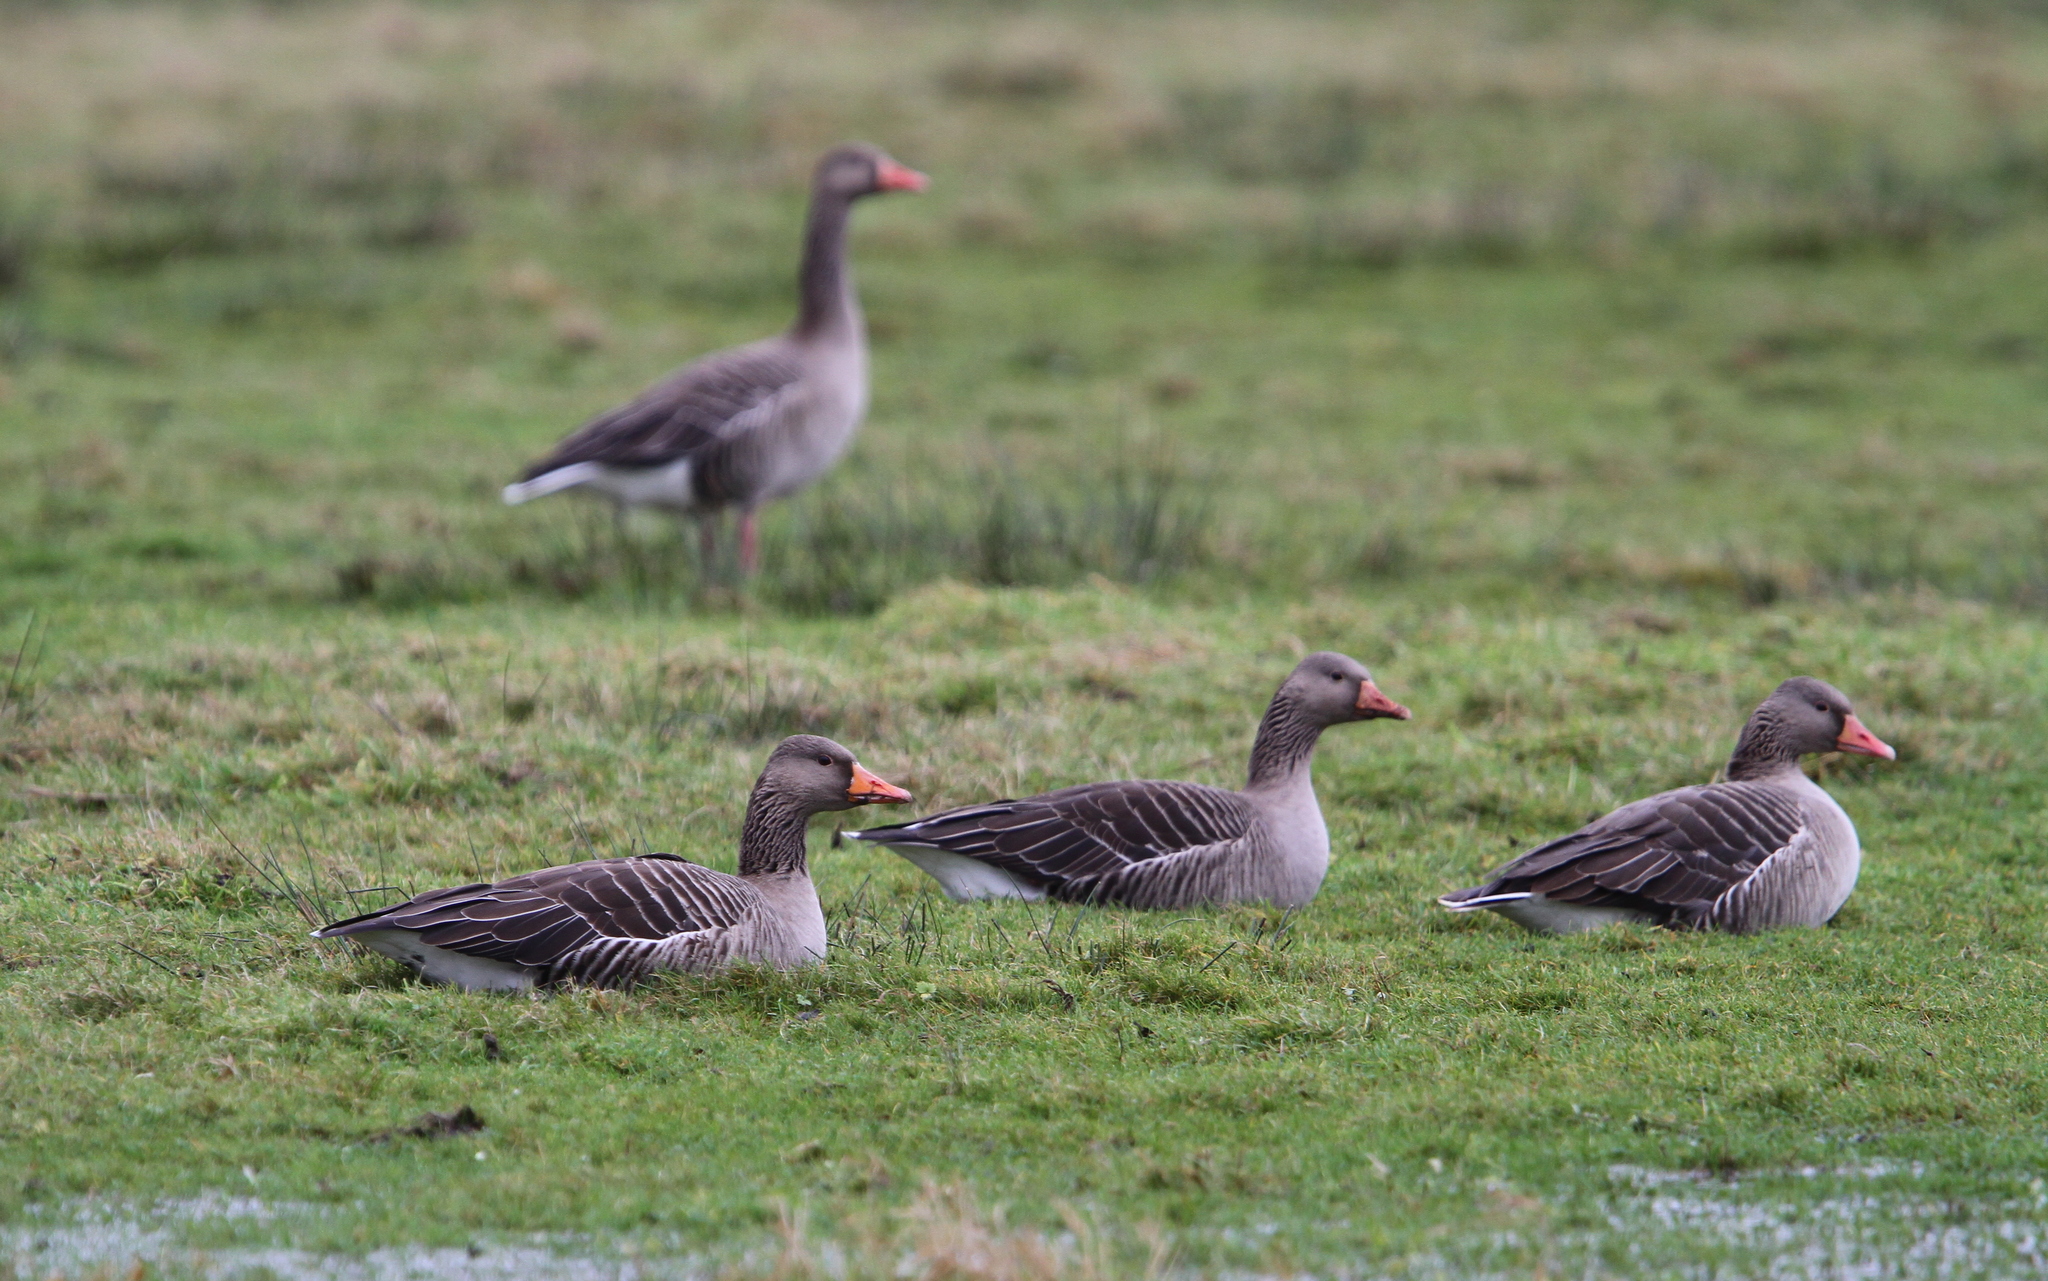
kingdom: Animalia
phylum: Chordata
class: Aves
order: Anseriformes
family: Anatidae
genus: Anser
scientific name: Anser anser
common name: Greylag goose
